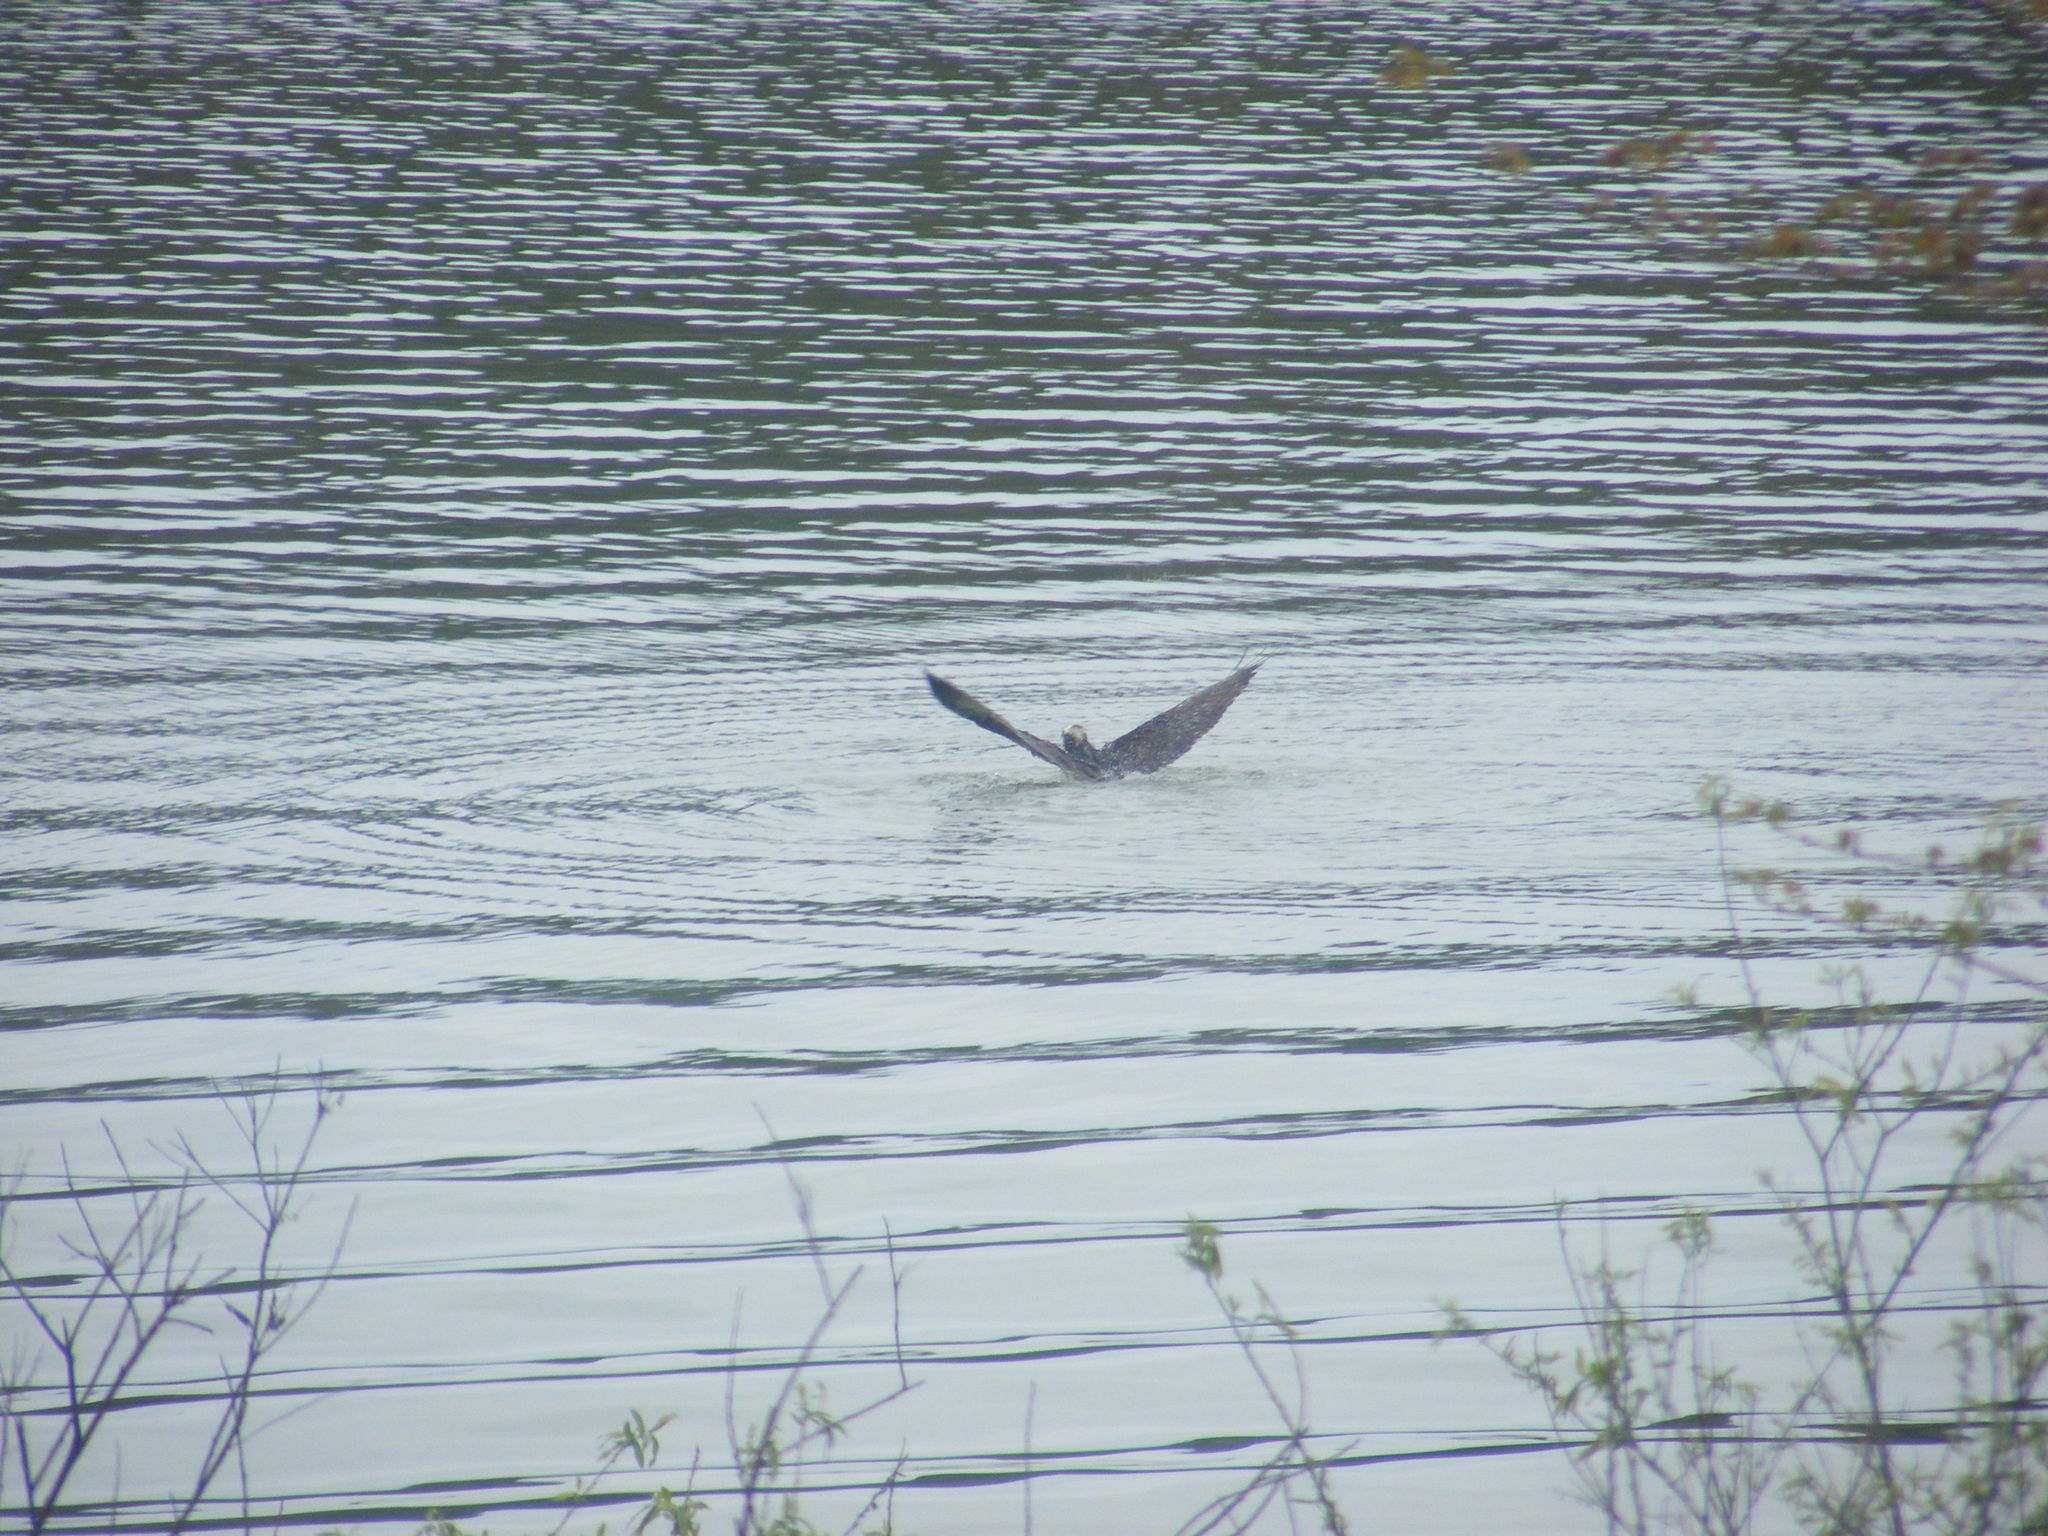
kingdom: Animalia
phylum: Chordata
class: Aves
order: Accipitriformes
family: Pandionidae
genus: Pandion
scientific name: Pandion haliaetus
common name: Osprey
